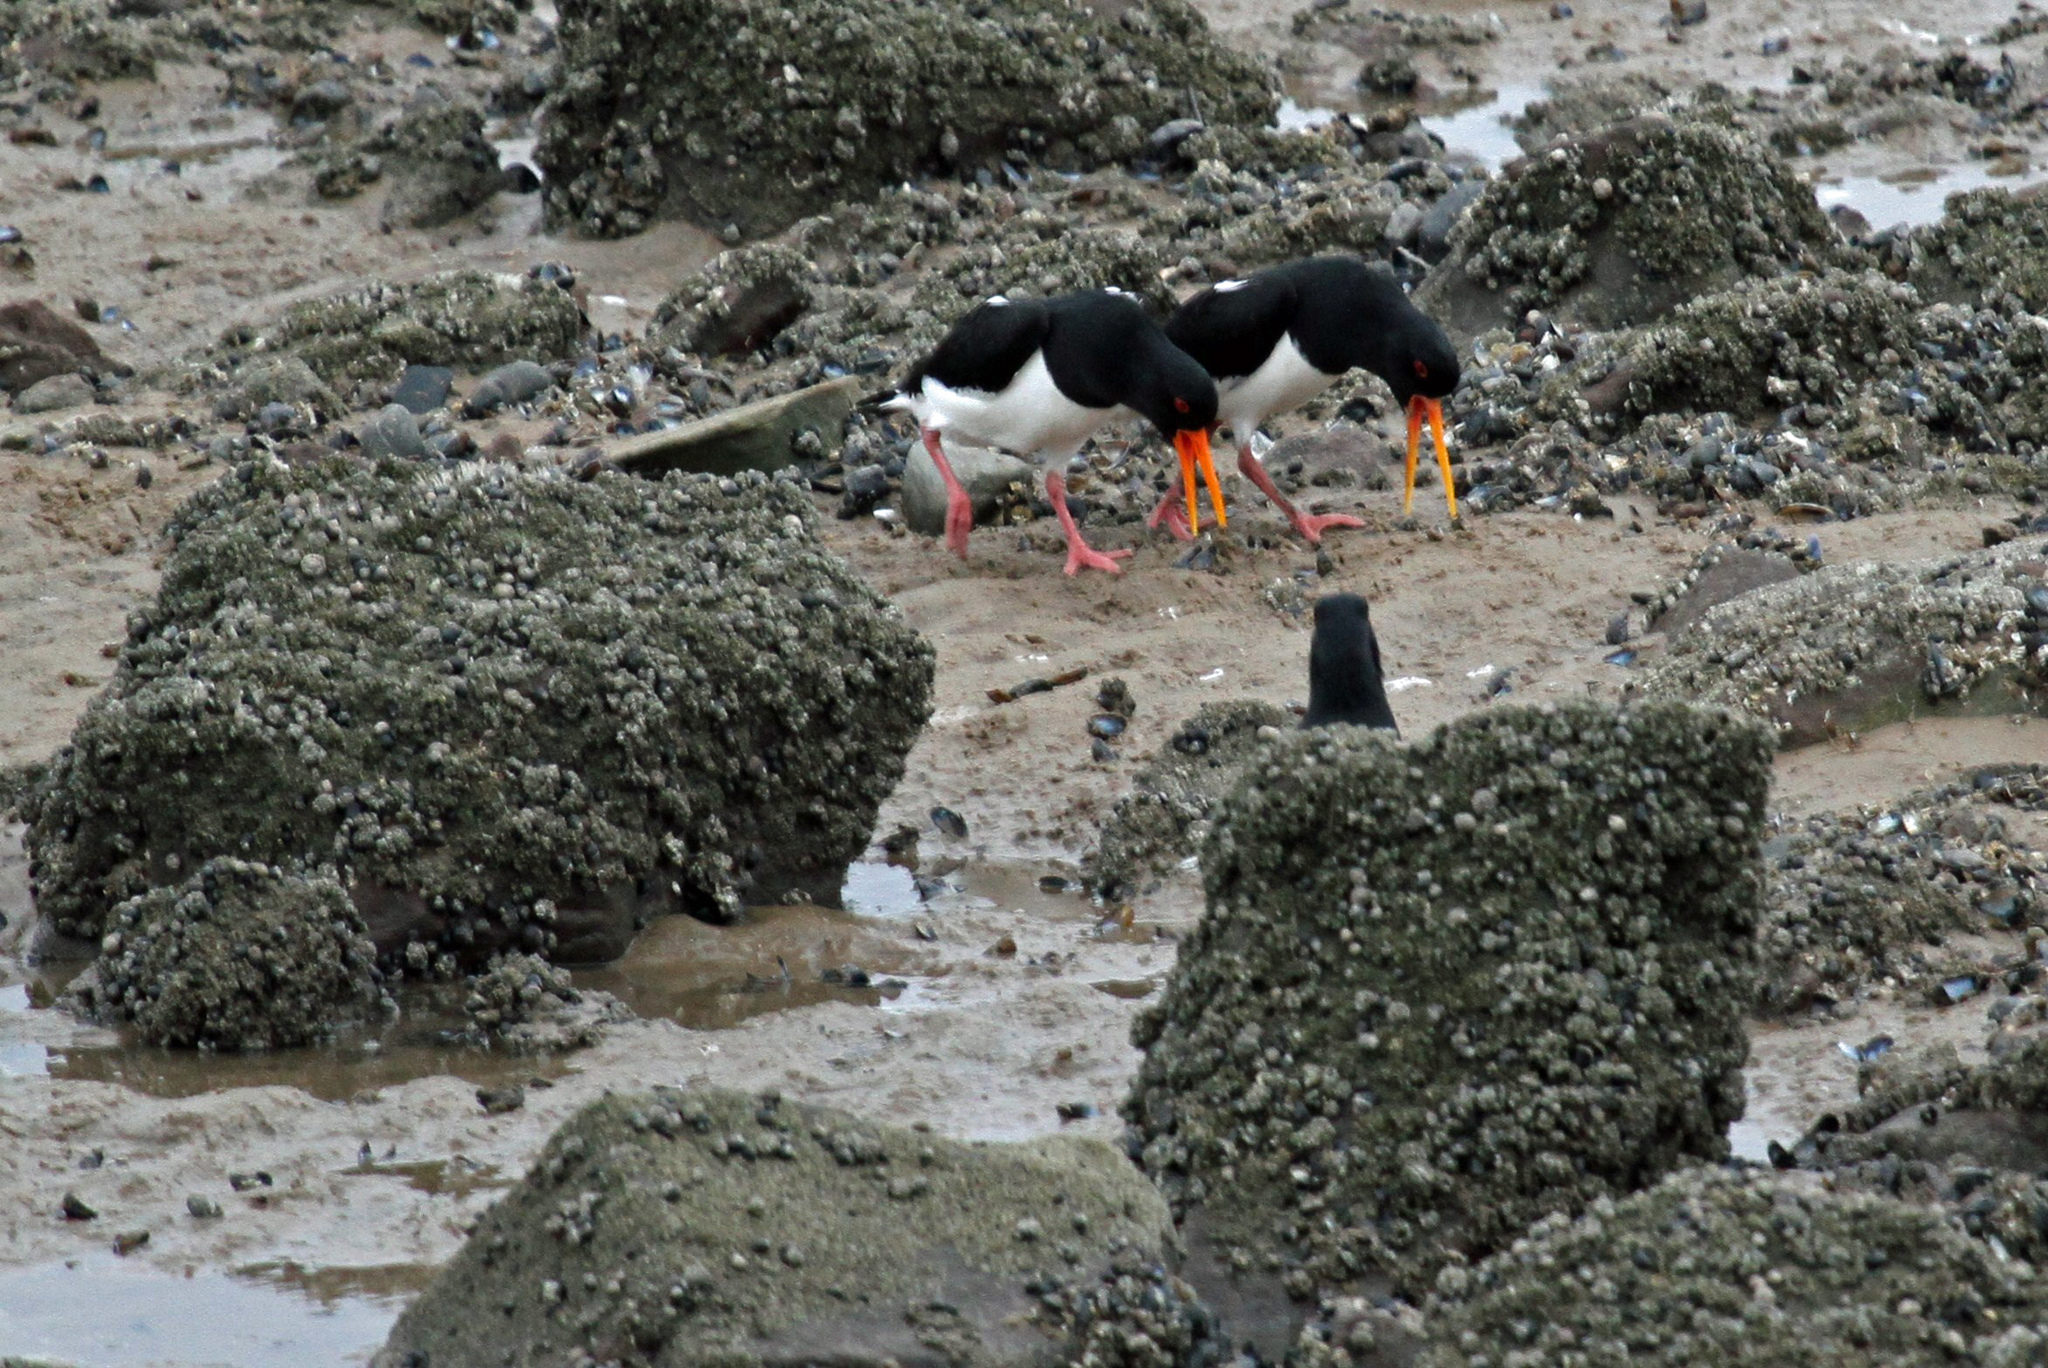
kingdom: Animalia
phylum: Chordata
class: Aves
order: Charadriiformes
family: Haematopodidae
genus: Haematopus
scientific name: Haematopus ostralegus
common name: Eurasian oystercatcher
